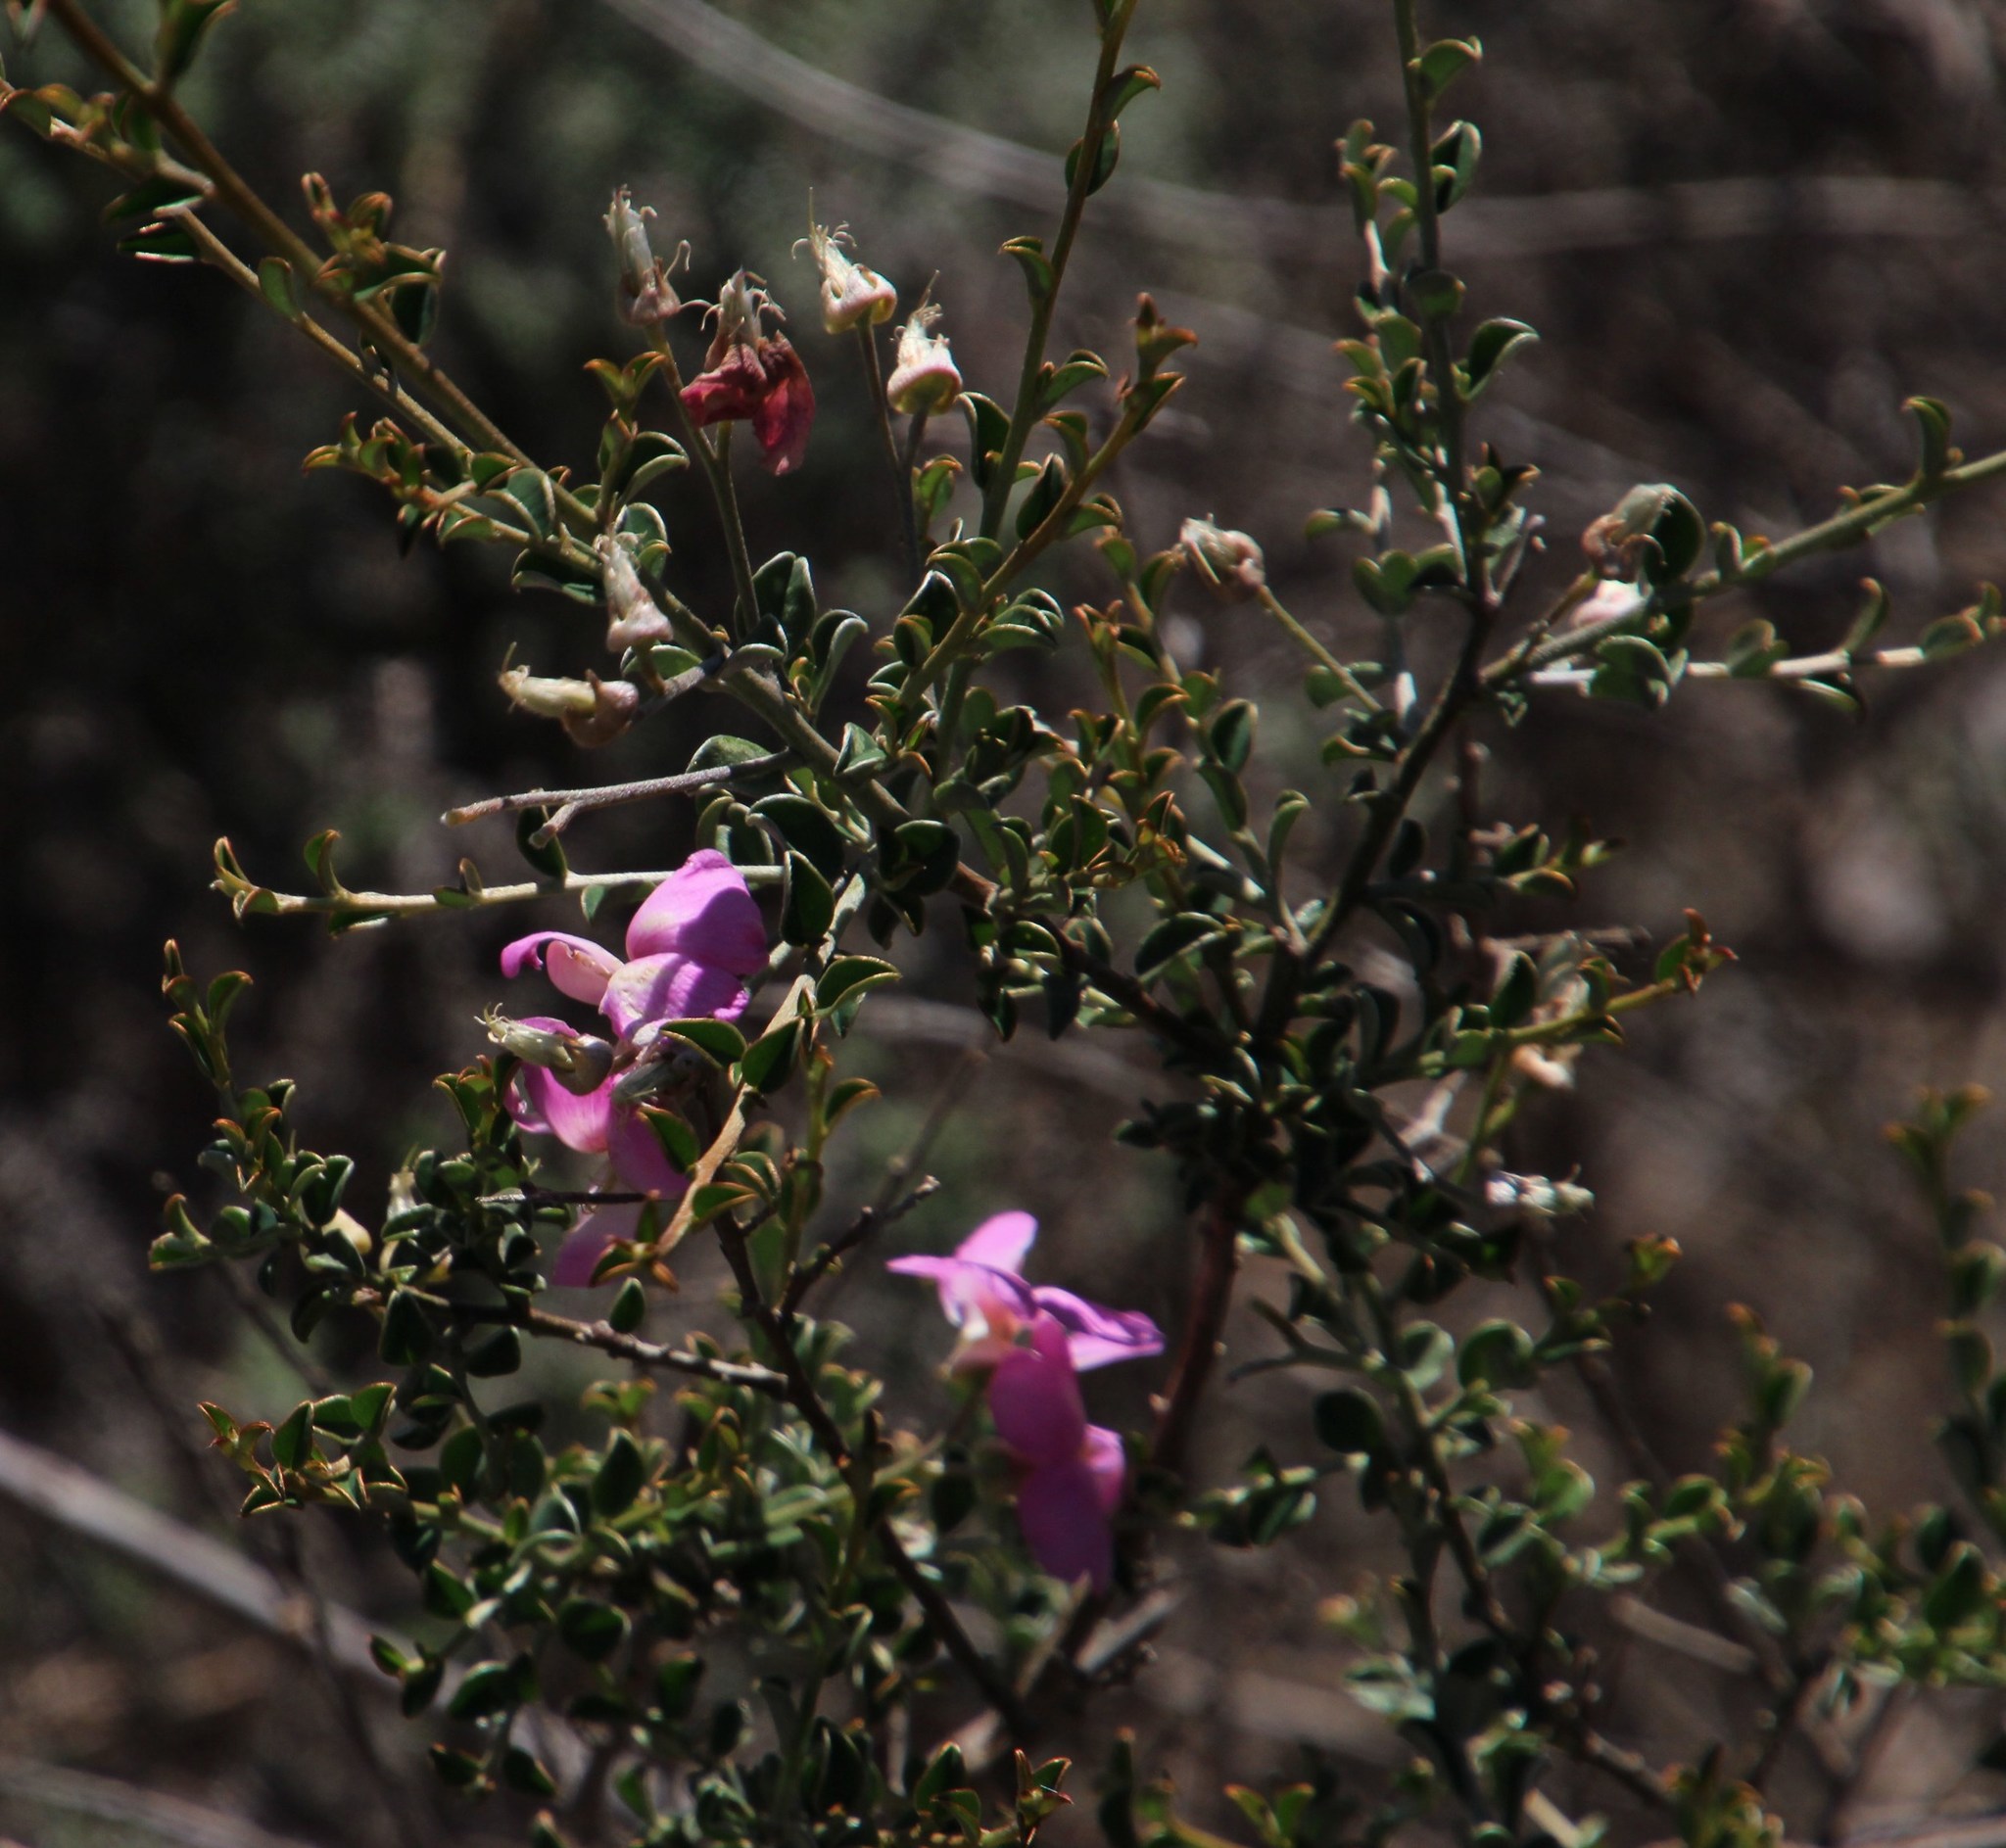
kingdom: Plantae
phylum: Tracheophyta
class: Magnoliopsida
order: Fabales
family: Fabaceae
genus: Podalyria
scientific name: Podalyria microphylla
